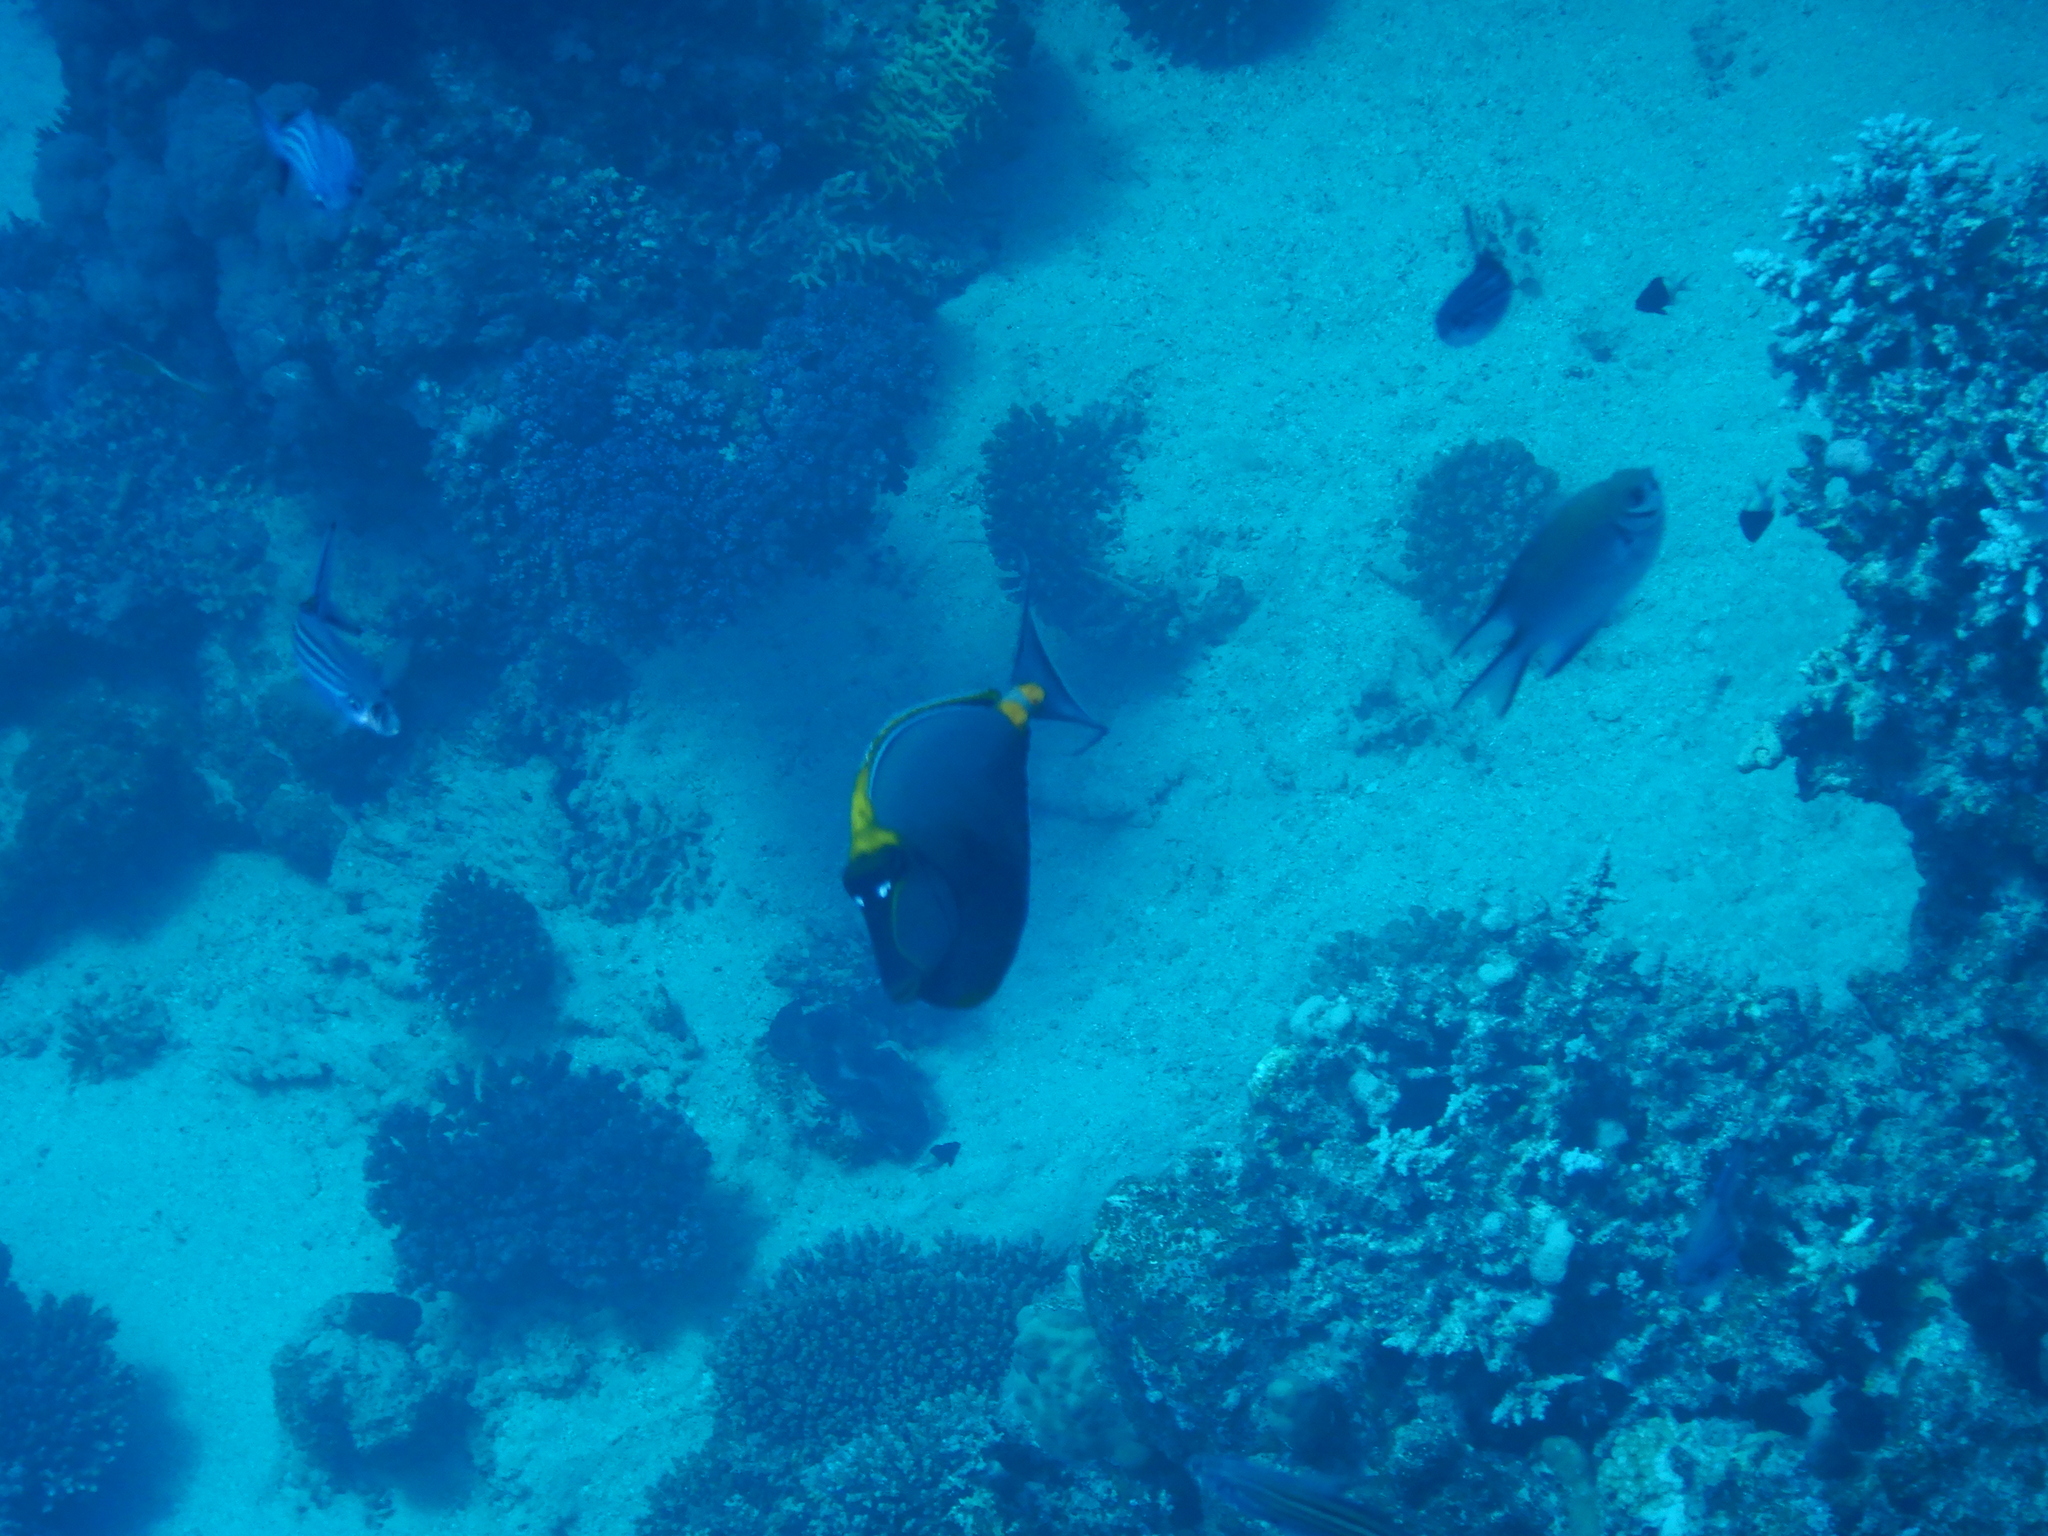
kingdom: Animalia
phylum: Chordata
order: Perciformes
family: Acanthuridae
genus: Naso
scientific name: Naso elegans
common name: Orangespine unicornfish
